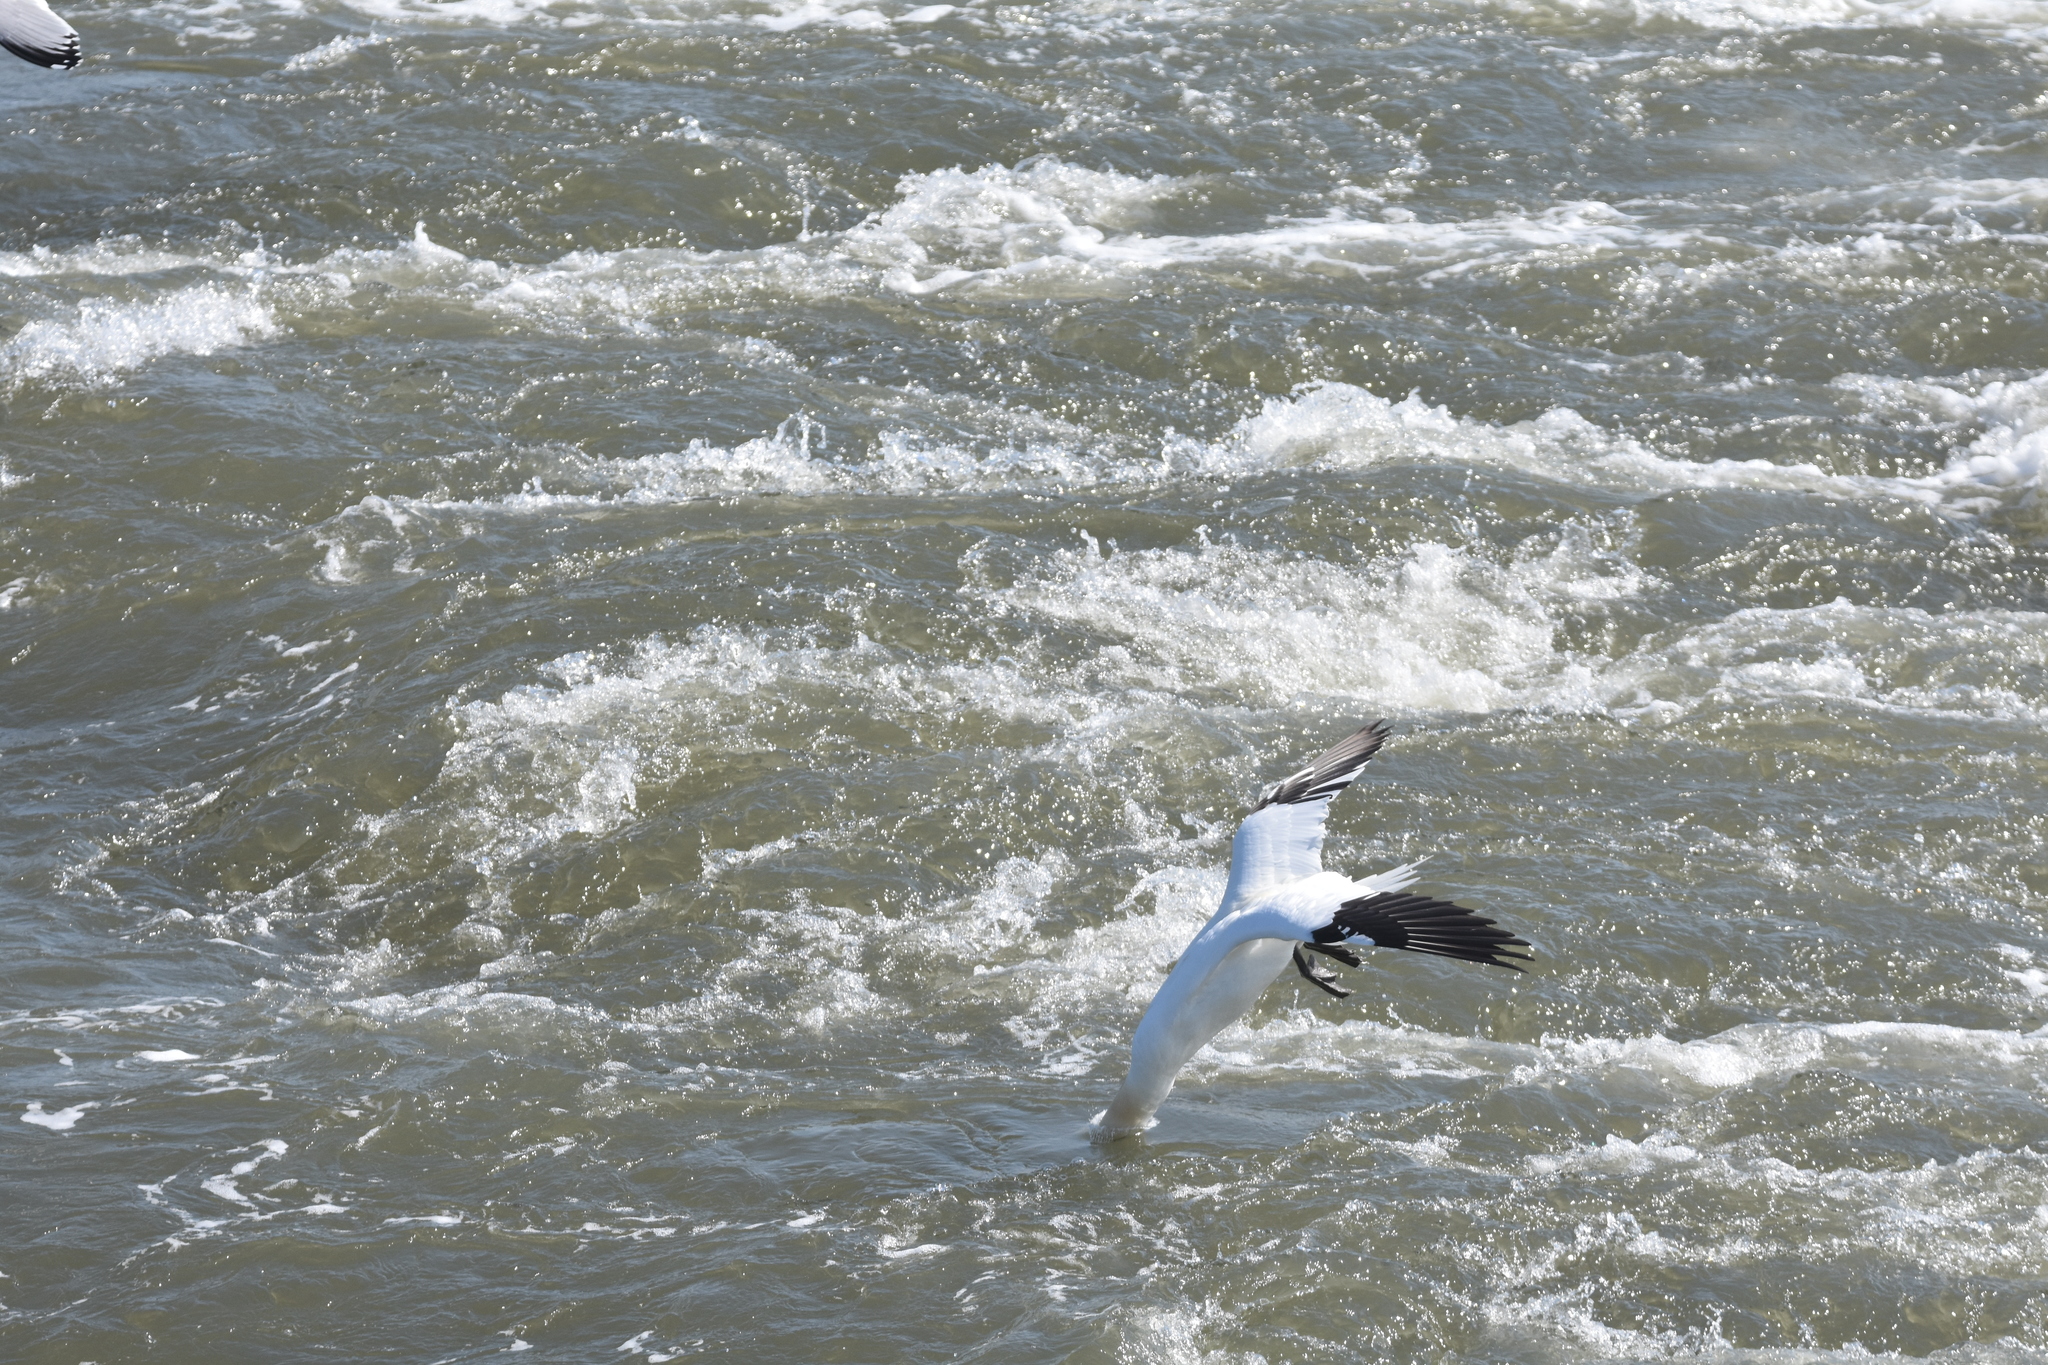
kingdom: Animalia
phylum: Chordata
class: Aves
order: Suliformes
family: Sulidae
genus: Morus
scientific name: Morus bassanus
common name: Northern gannet
